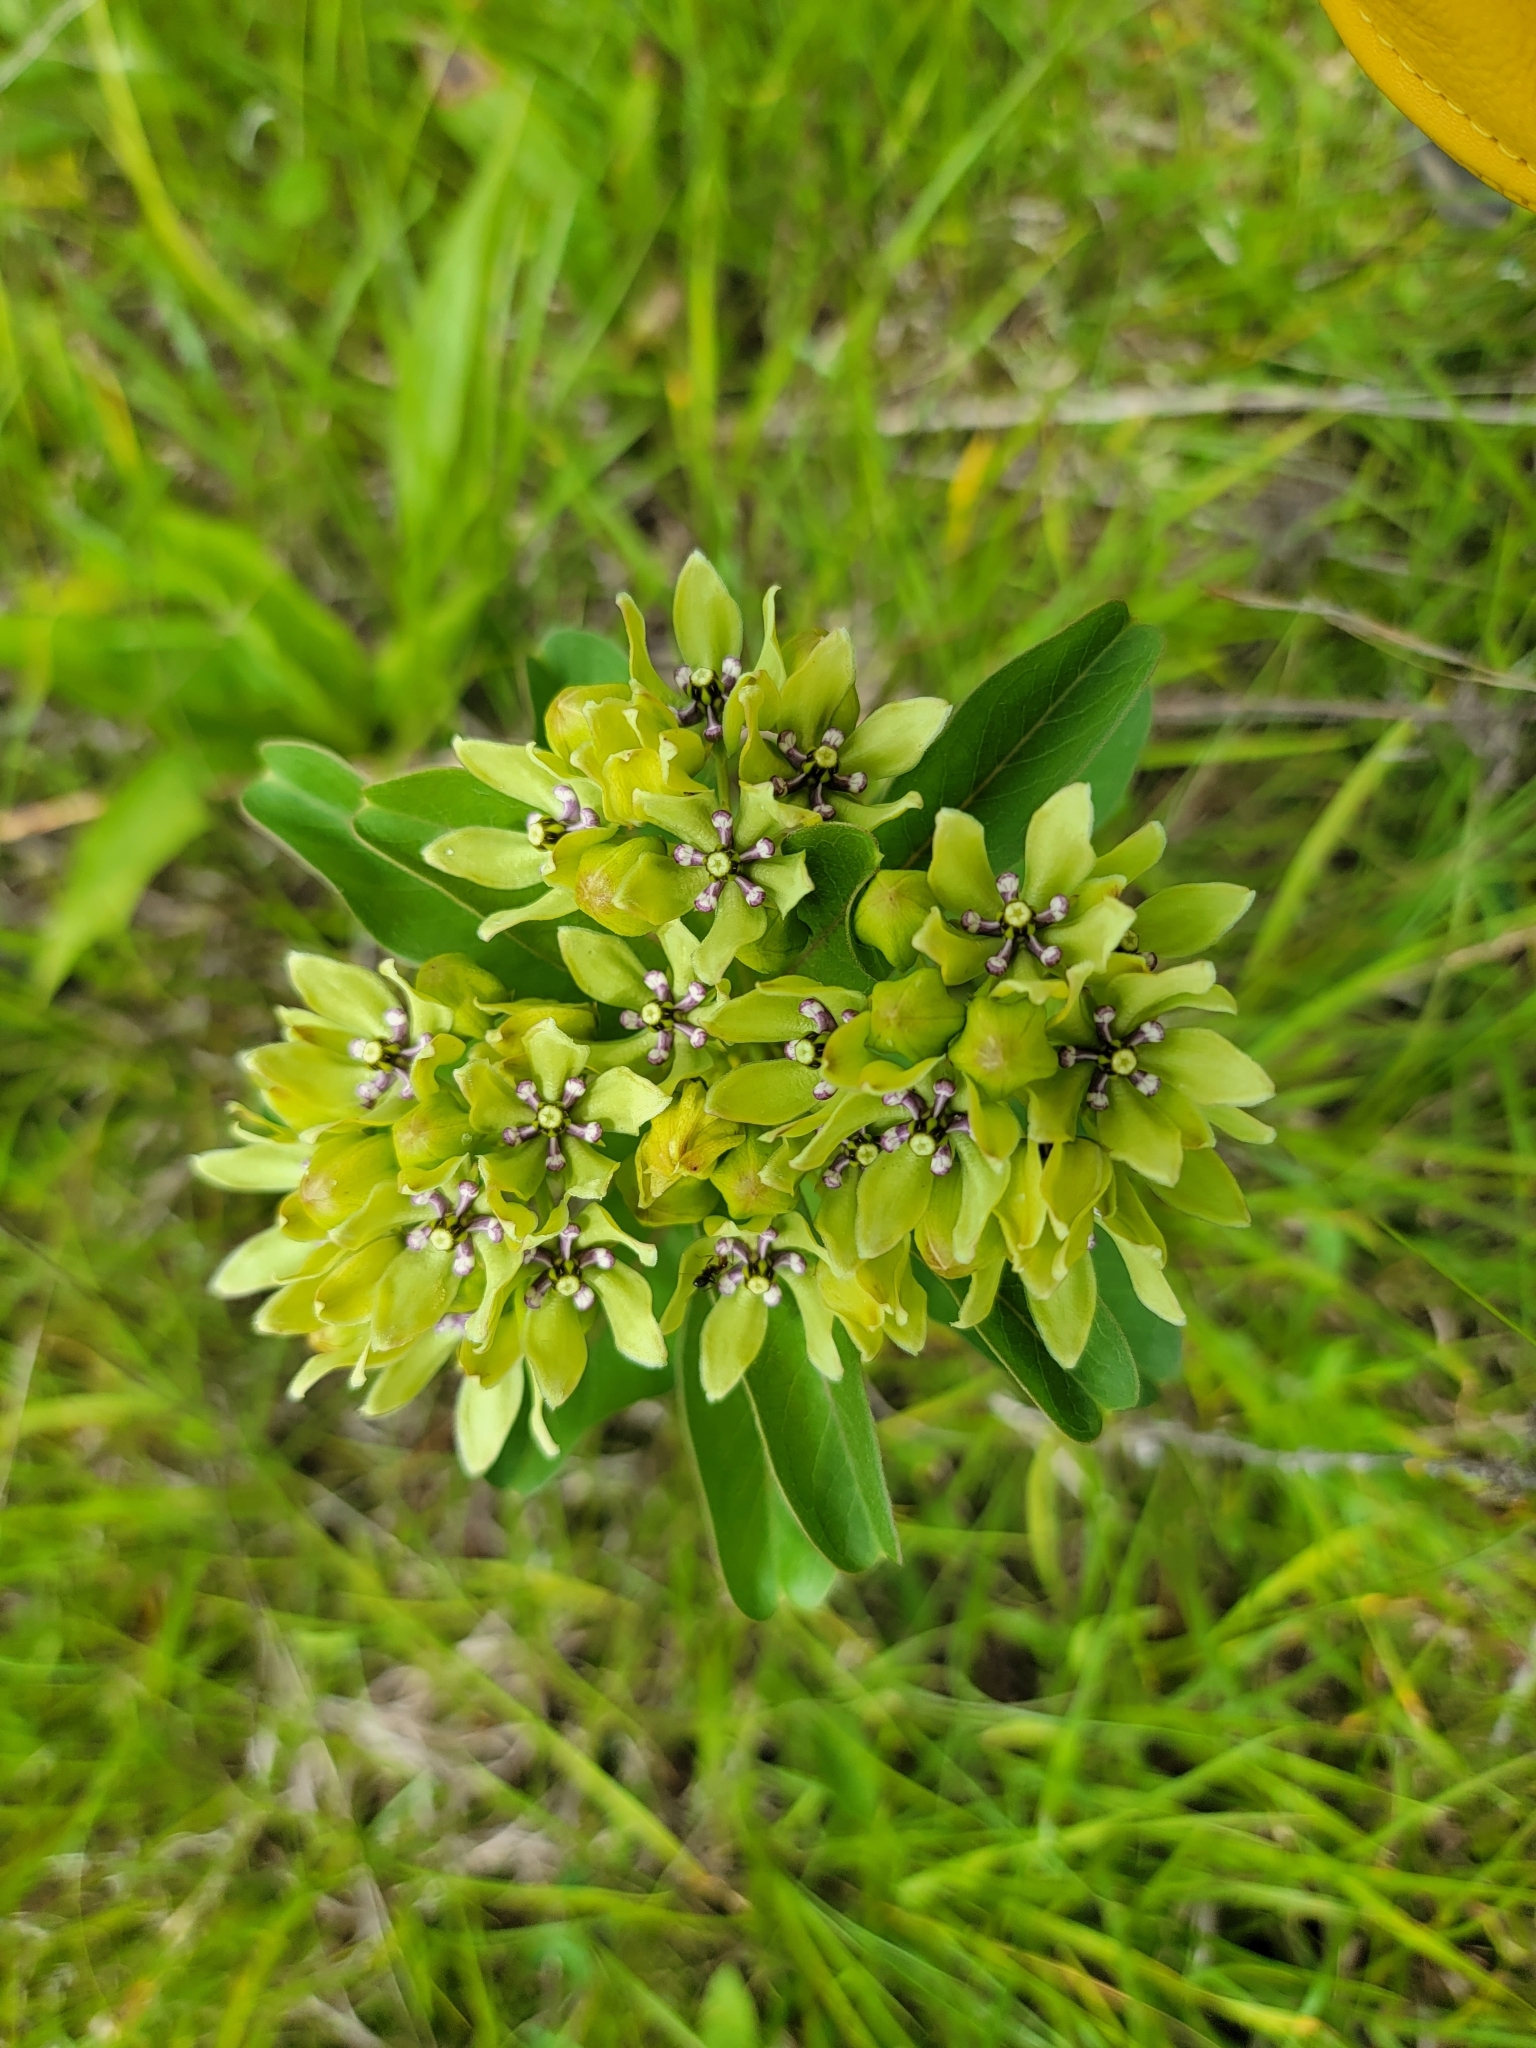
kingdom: Plantae
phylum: Tracheophyta
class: Magnoliopsida
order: Gentianales
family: Apocynaceae
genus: Asclepias
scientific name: Asclepias viridis
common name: Antelope-horns
